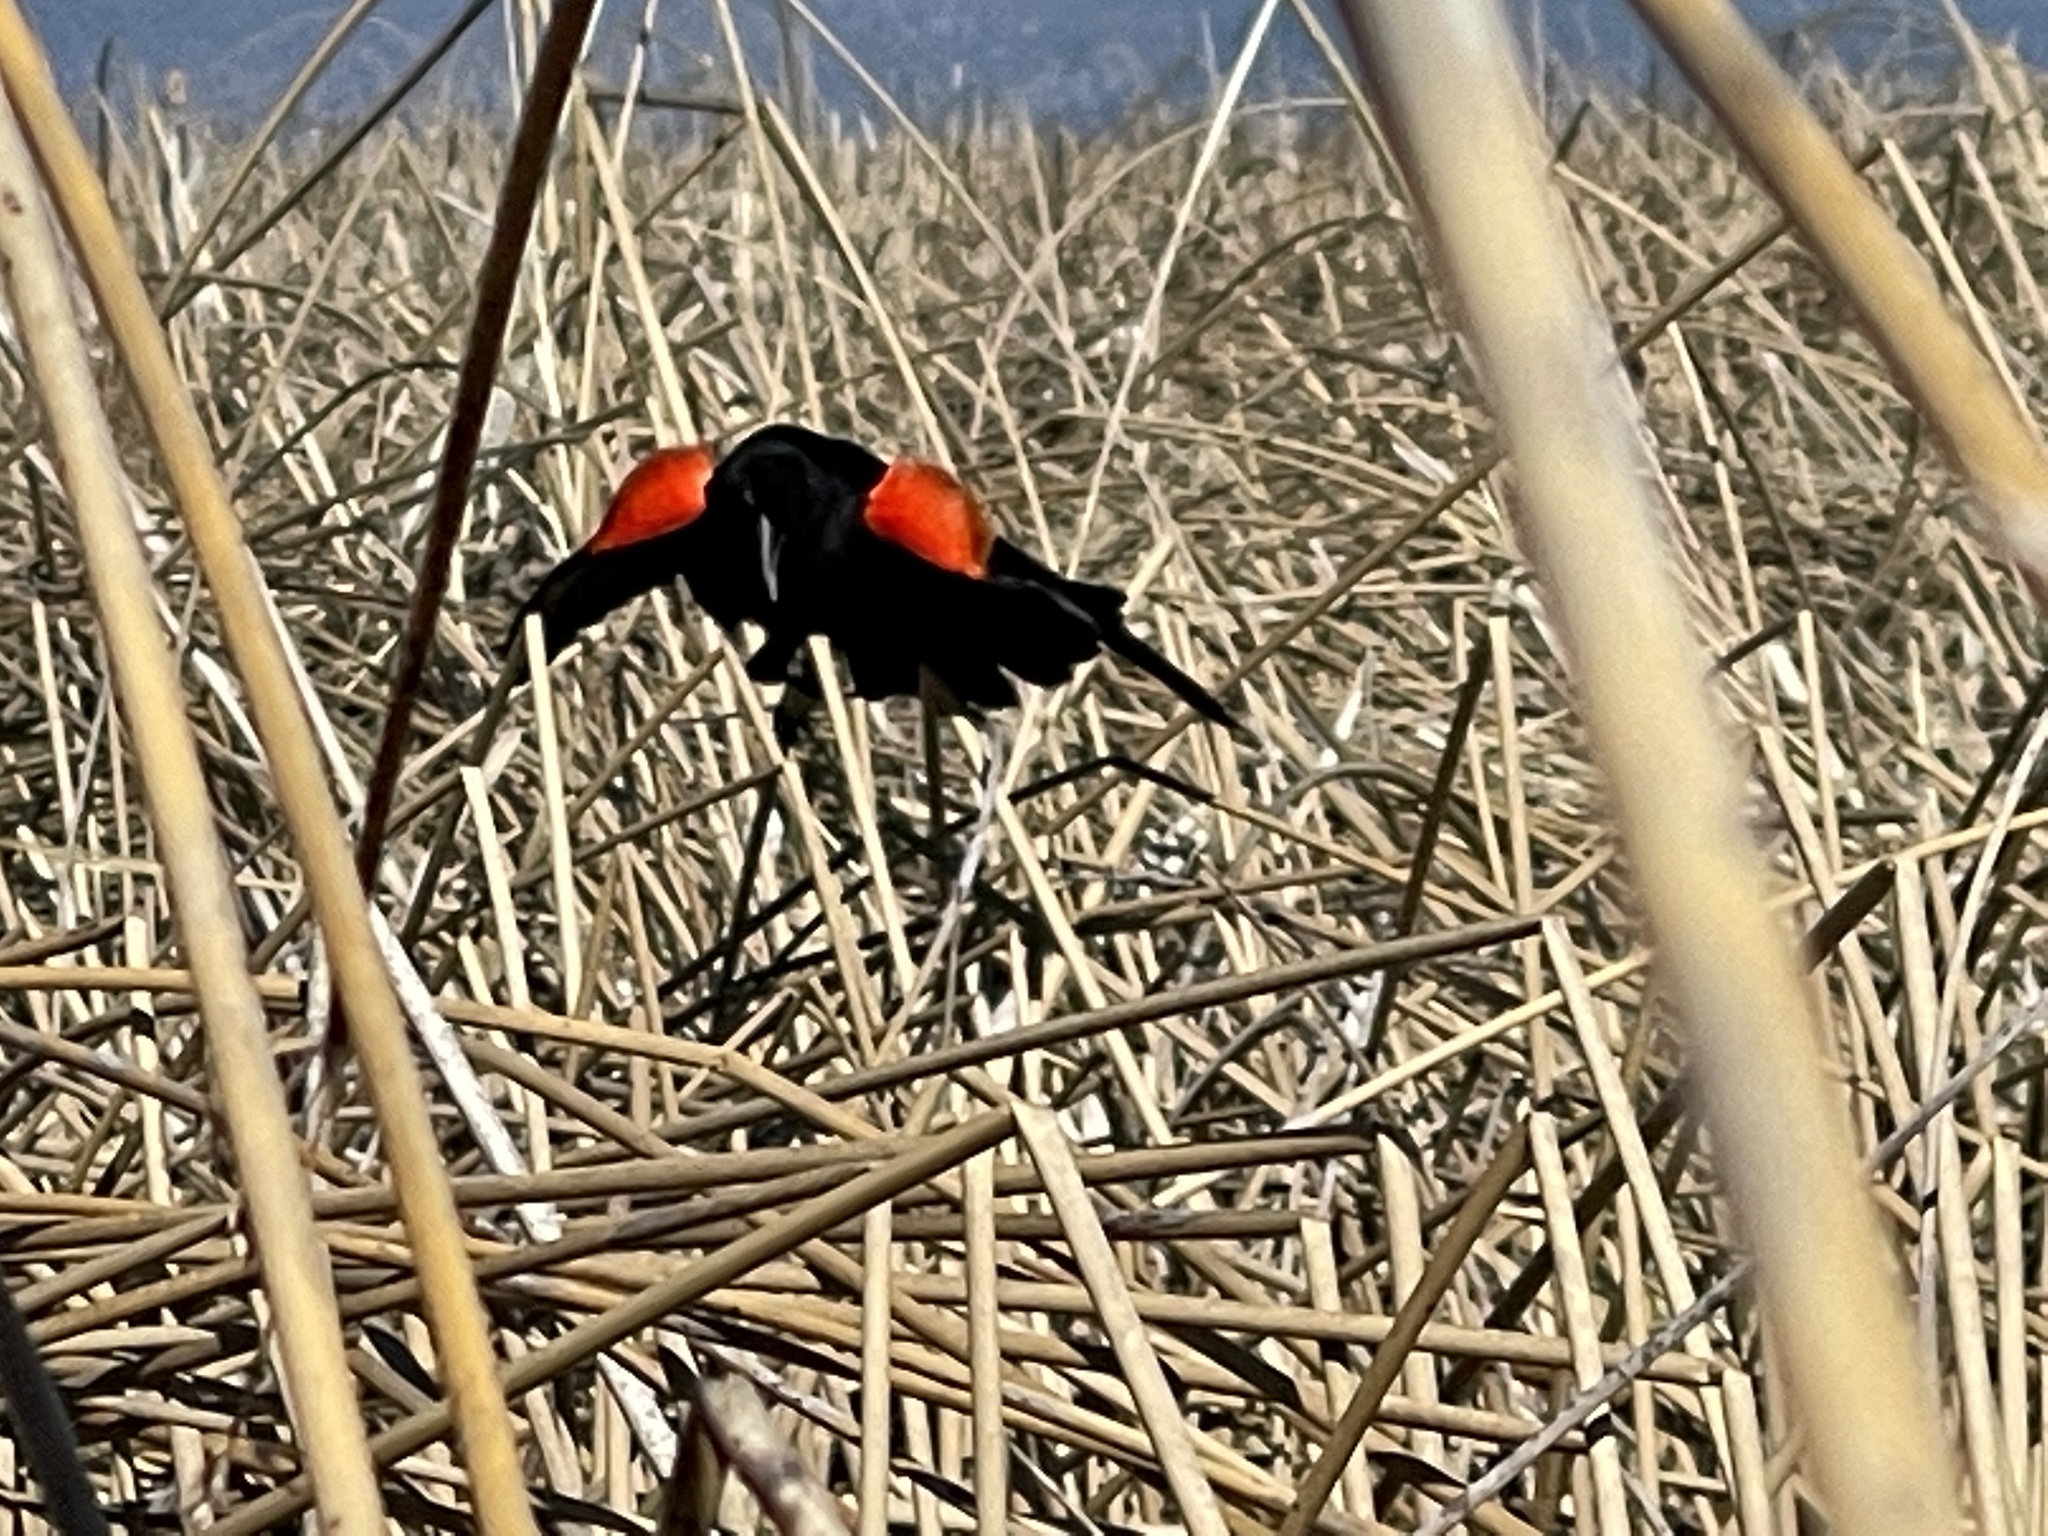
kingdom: Animalia
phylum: Chordata
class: Aves
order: Passeriformes
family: Icteridae
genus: Agelaius
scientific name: Agelaius phoeniceus
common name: Red-winged blackbird
